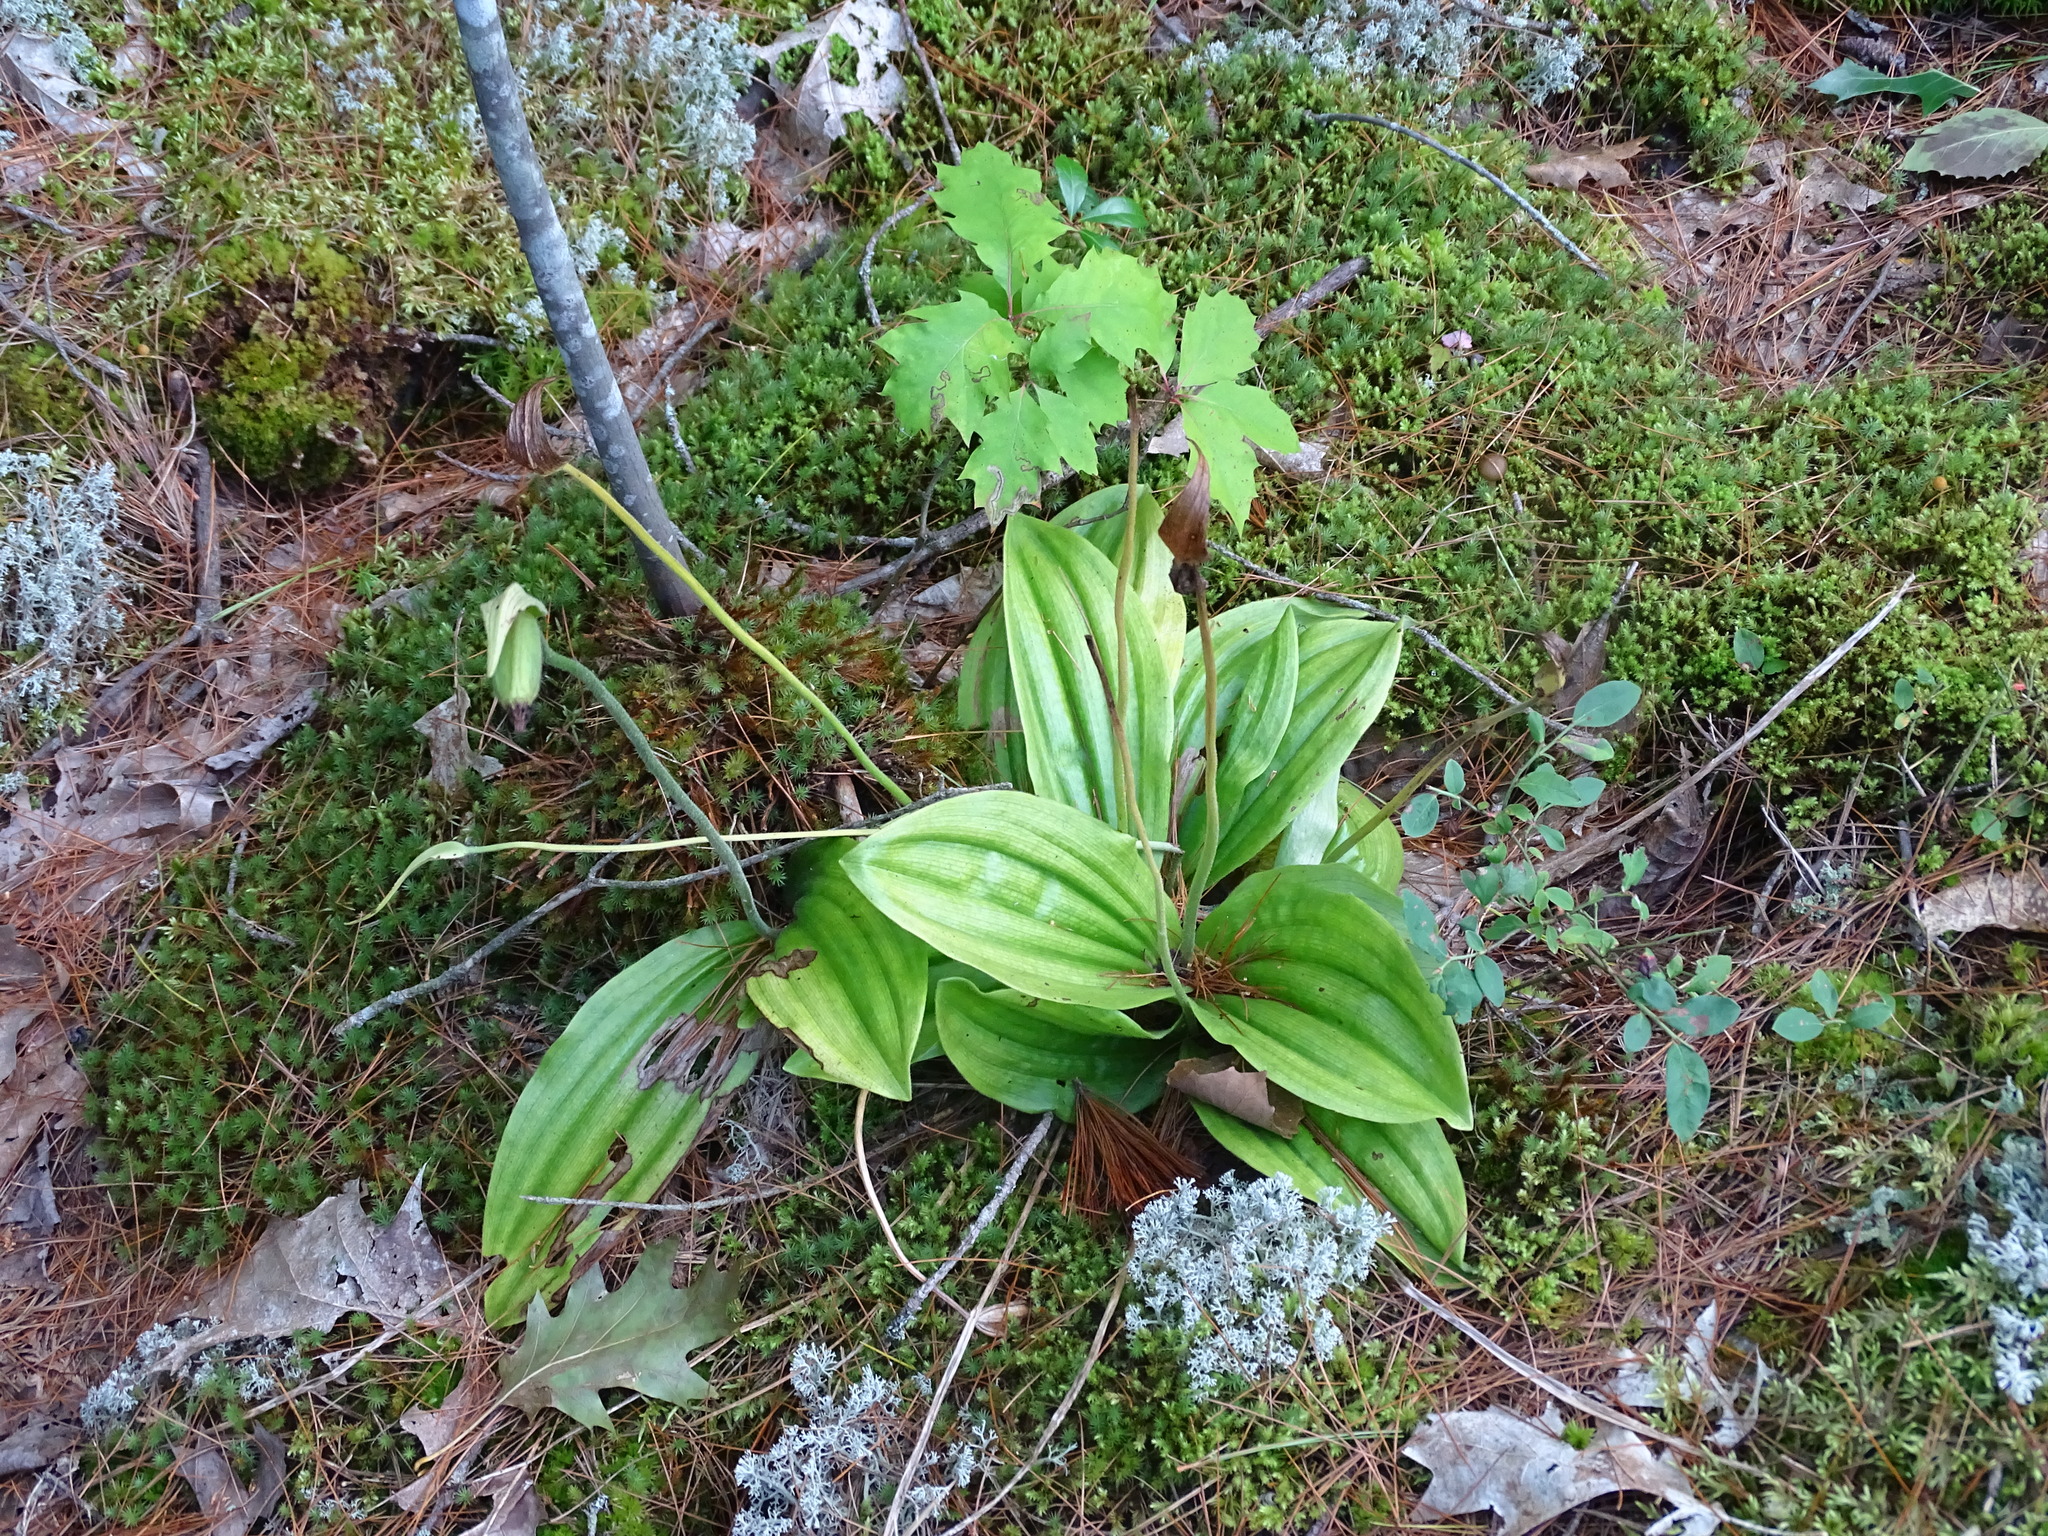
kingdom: Plantae
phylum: Tracheophyta
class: Liliopsida
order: Asparagales
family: Orchidaceae
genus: Cypripedium
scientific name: Cypripedium acaule
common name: Pink lady's-slipper
